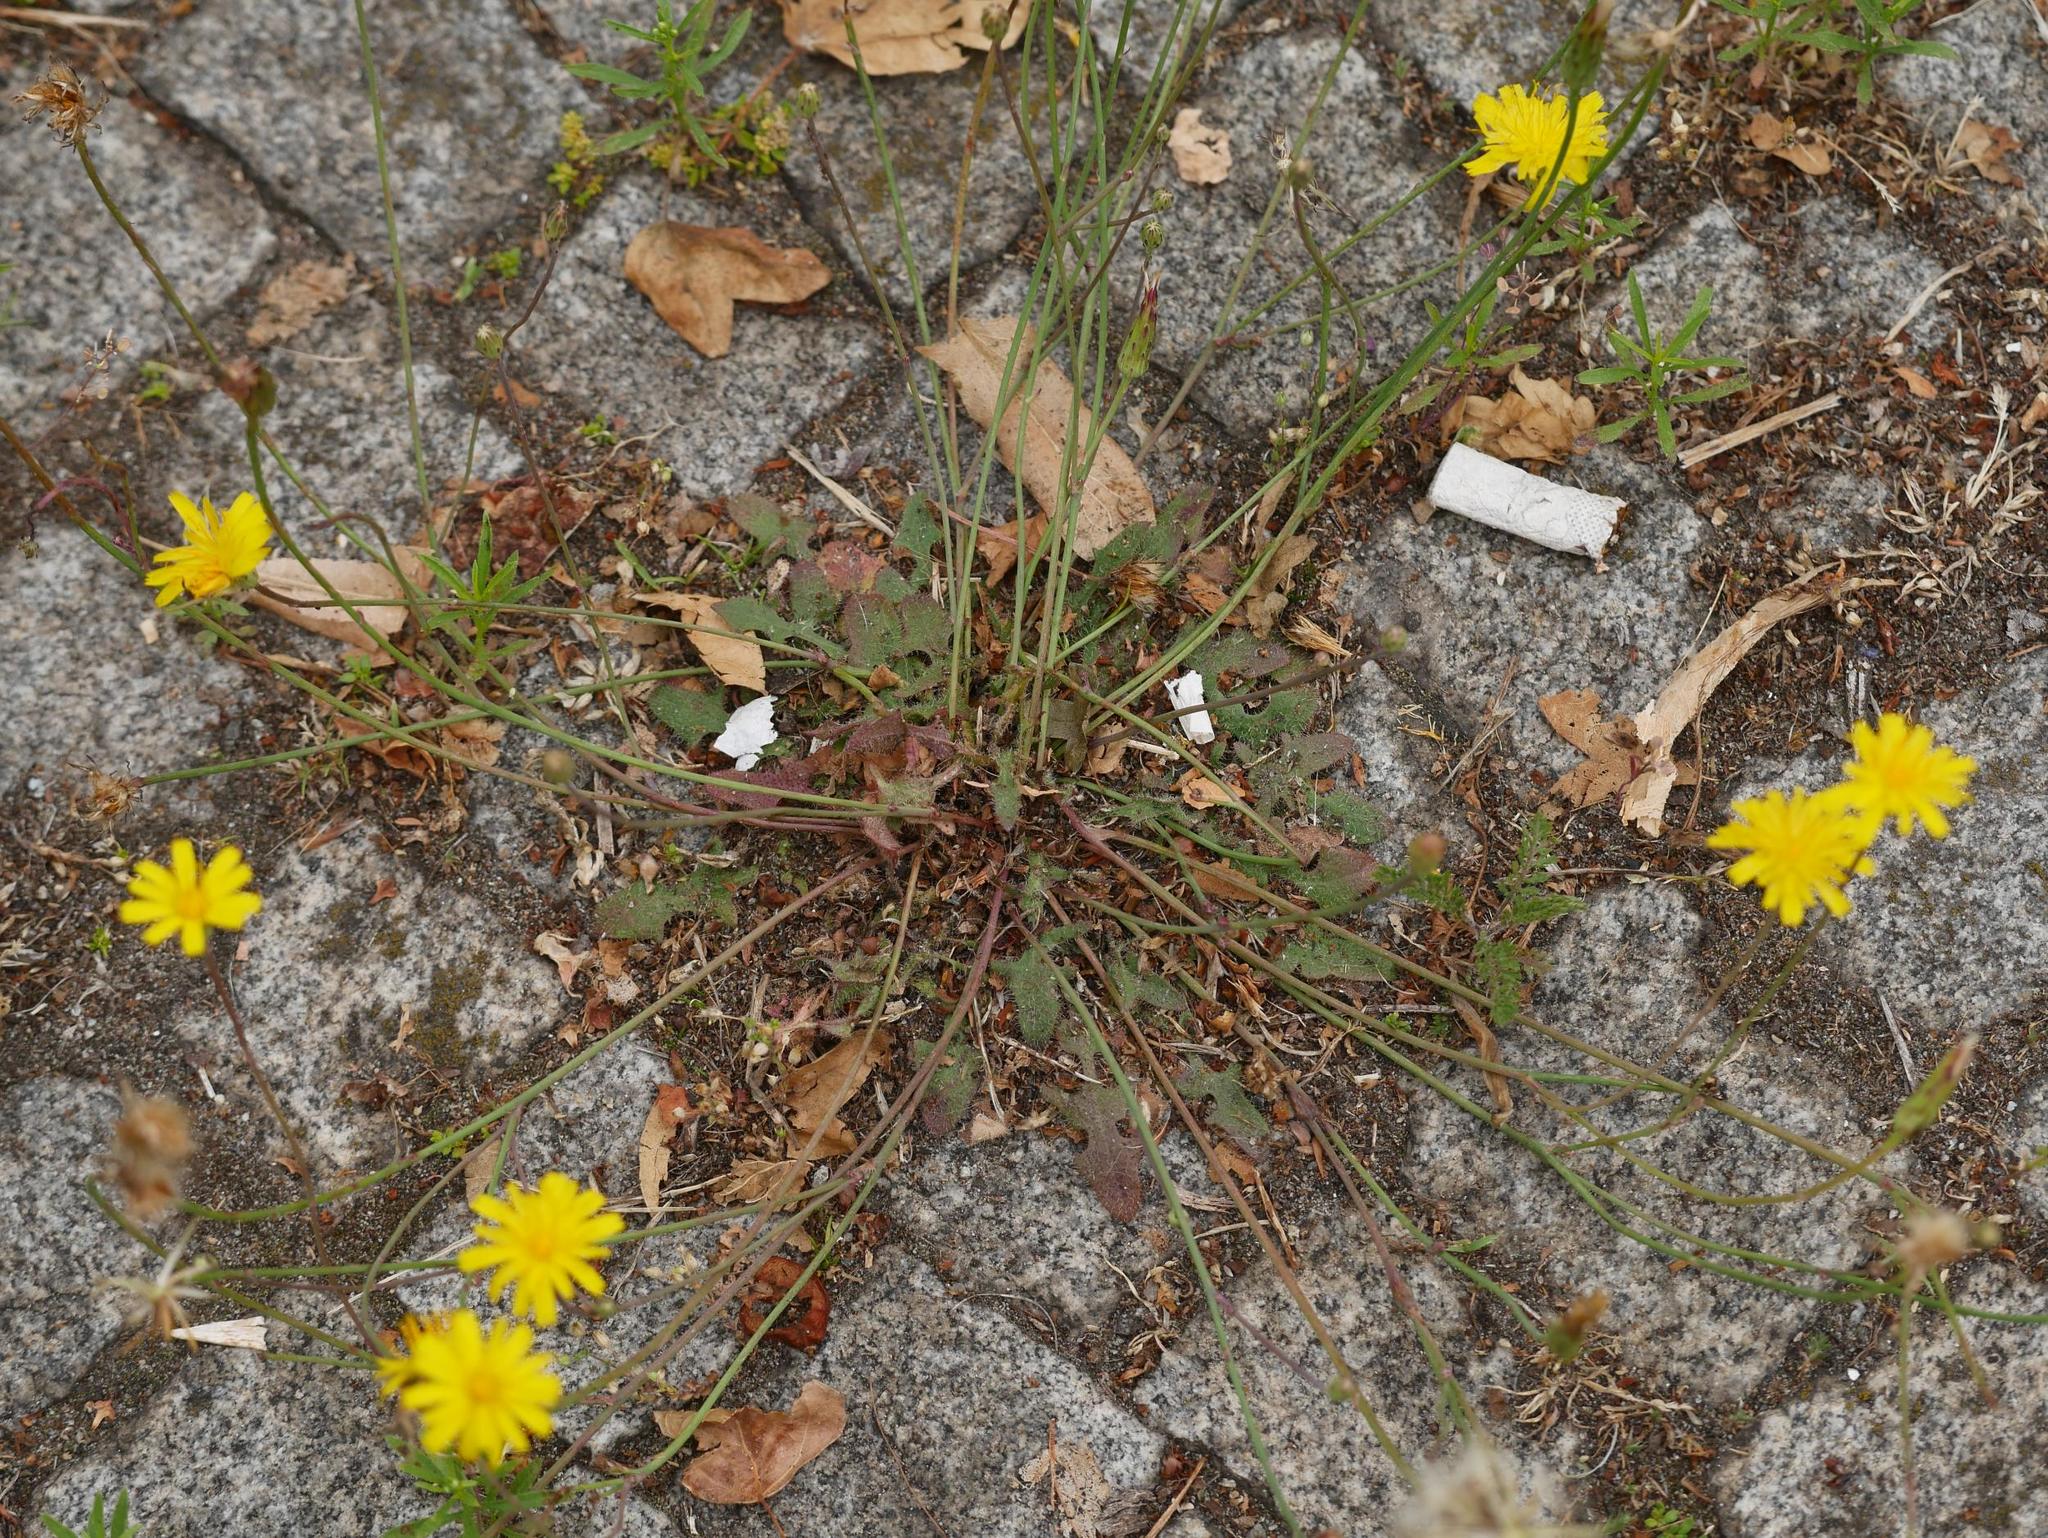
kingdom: Plantae
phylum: Tracheophyta
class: Magnoliopsida
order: Asterales
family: Asteraceae
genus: Hypochaeris
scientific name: Hypochaeris radicata
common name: Flatweed
